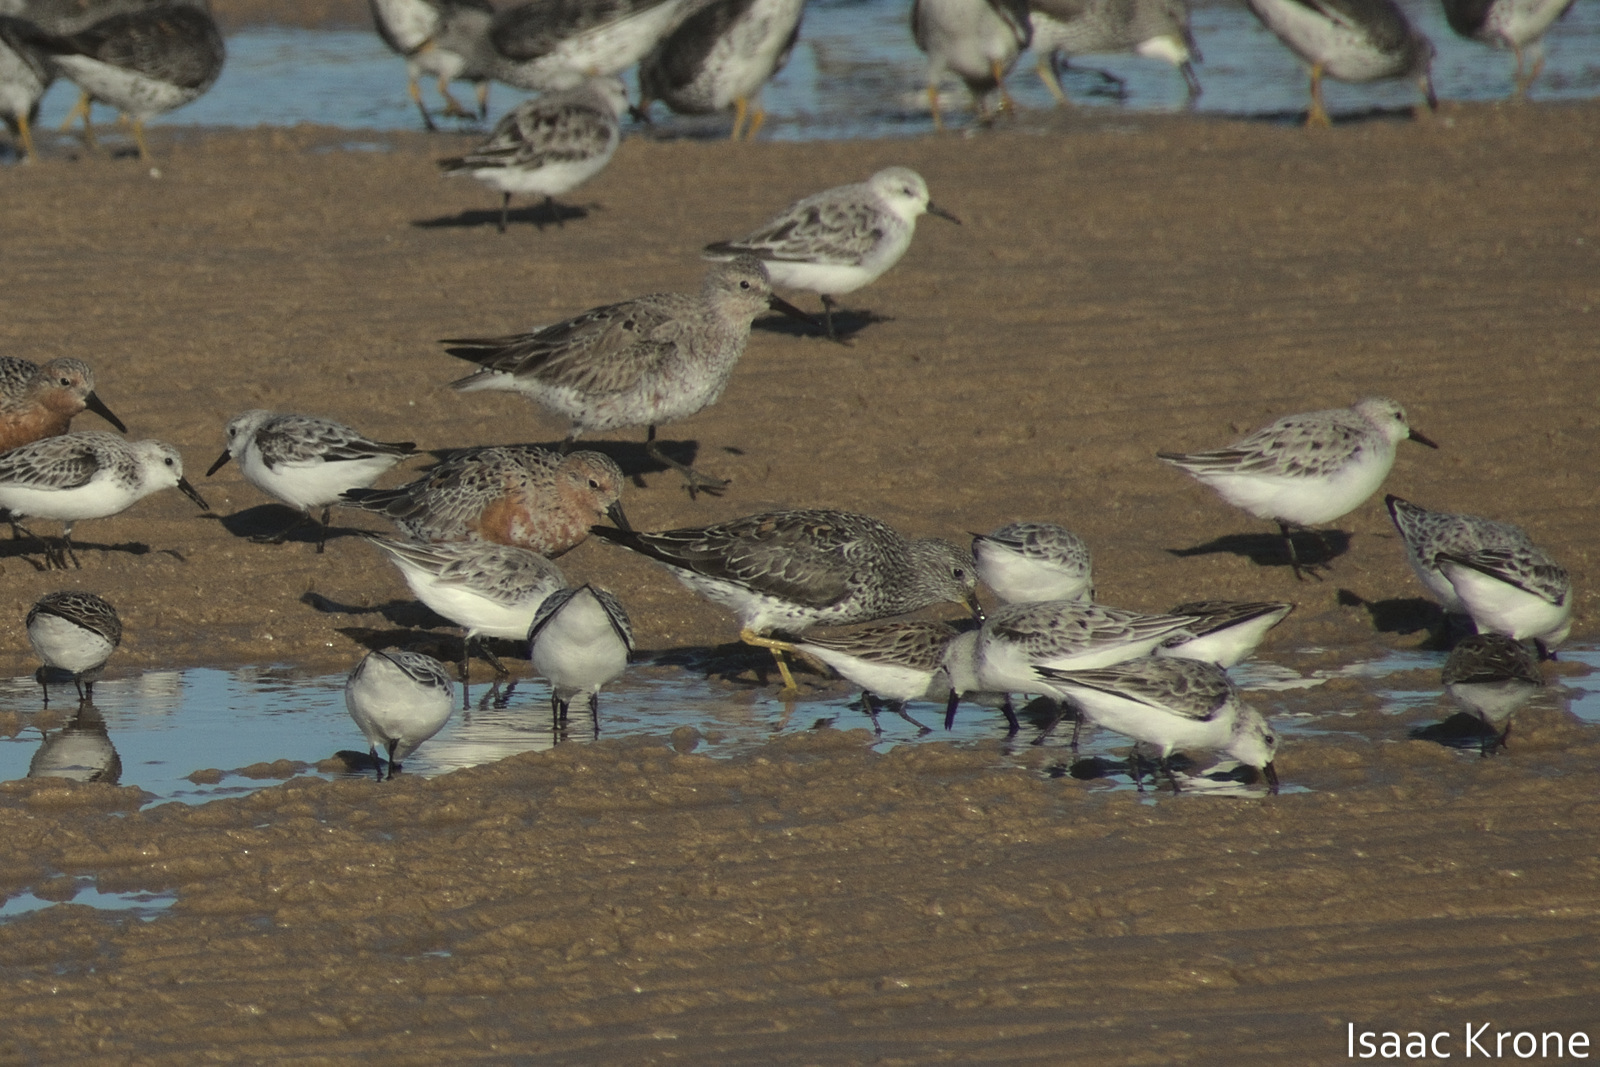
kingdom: Animalia
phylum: Chordata
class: Aves
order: Charadriiformes
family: Scolopacidae
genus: Calidris
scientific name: Calidris virgata
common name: Surfbird
